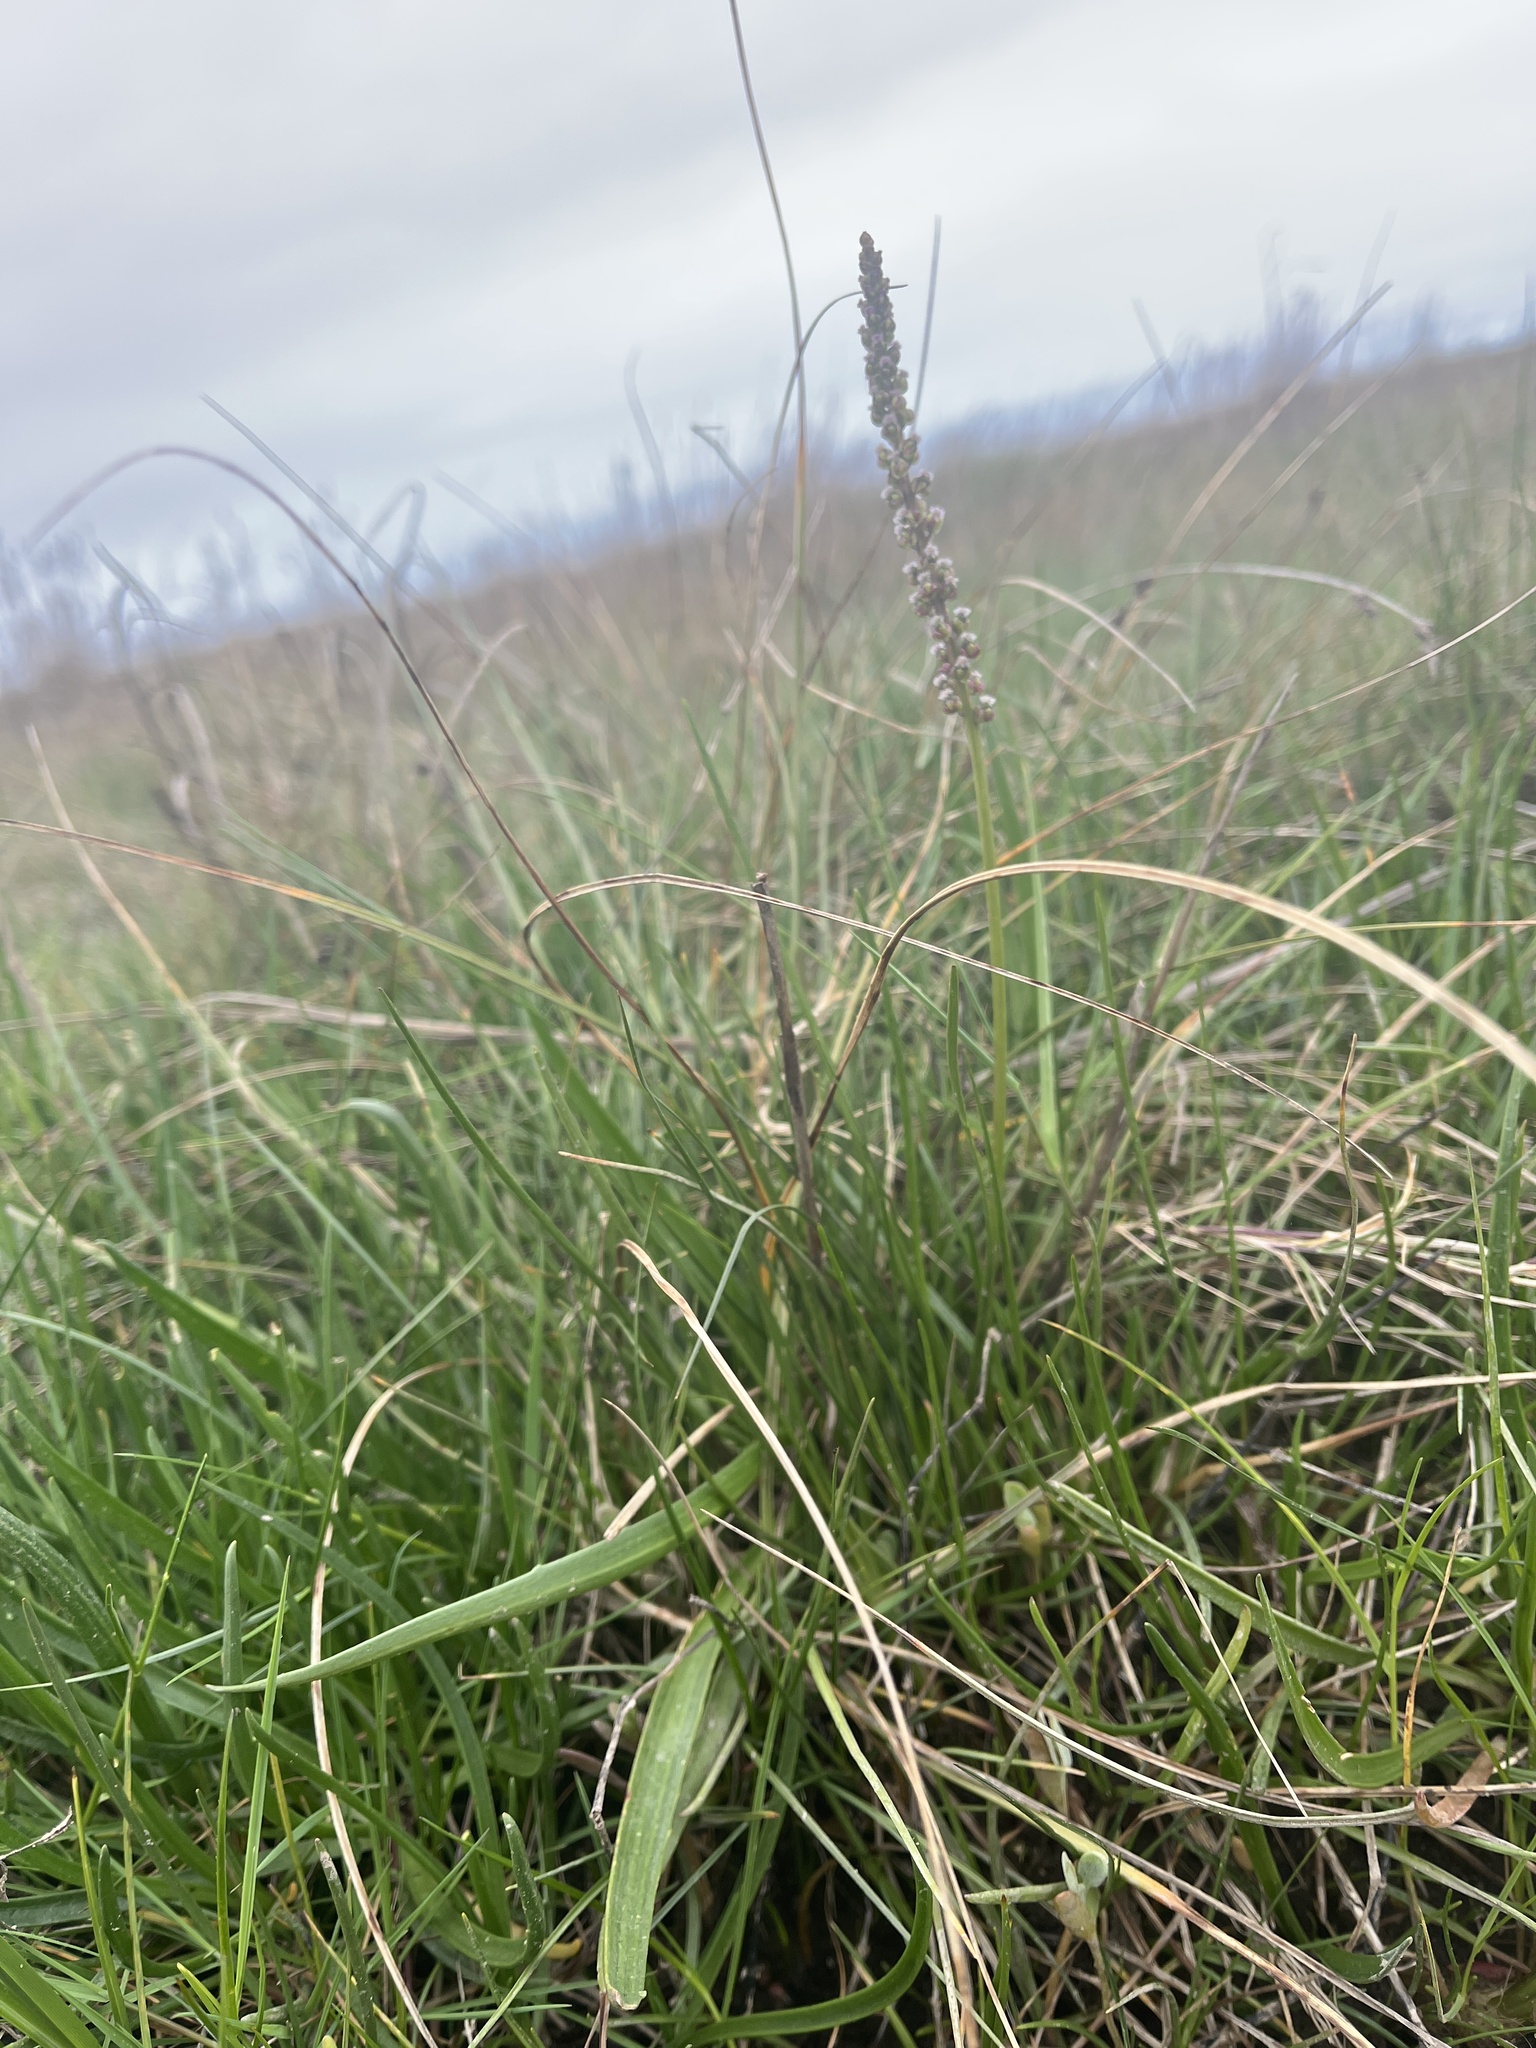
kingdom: Plantae
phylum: Tracheophyta
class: Liliopsida
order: Alismatales
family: Juncaginaceae
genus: Triglochin
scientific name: Triglochin maritima
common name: Sea arrowgrass
